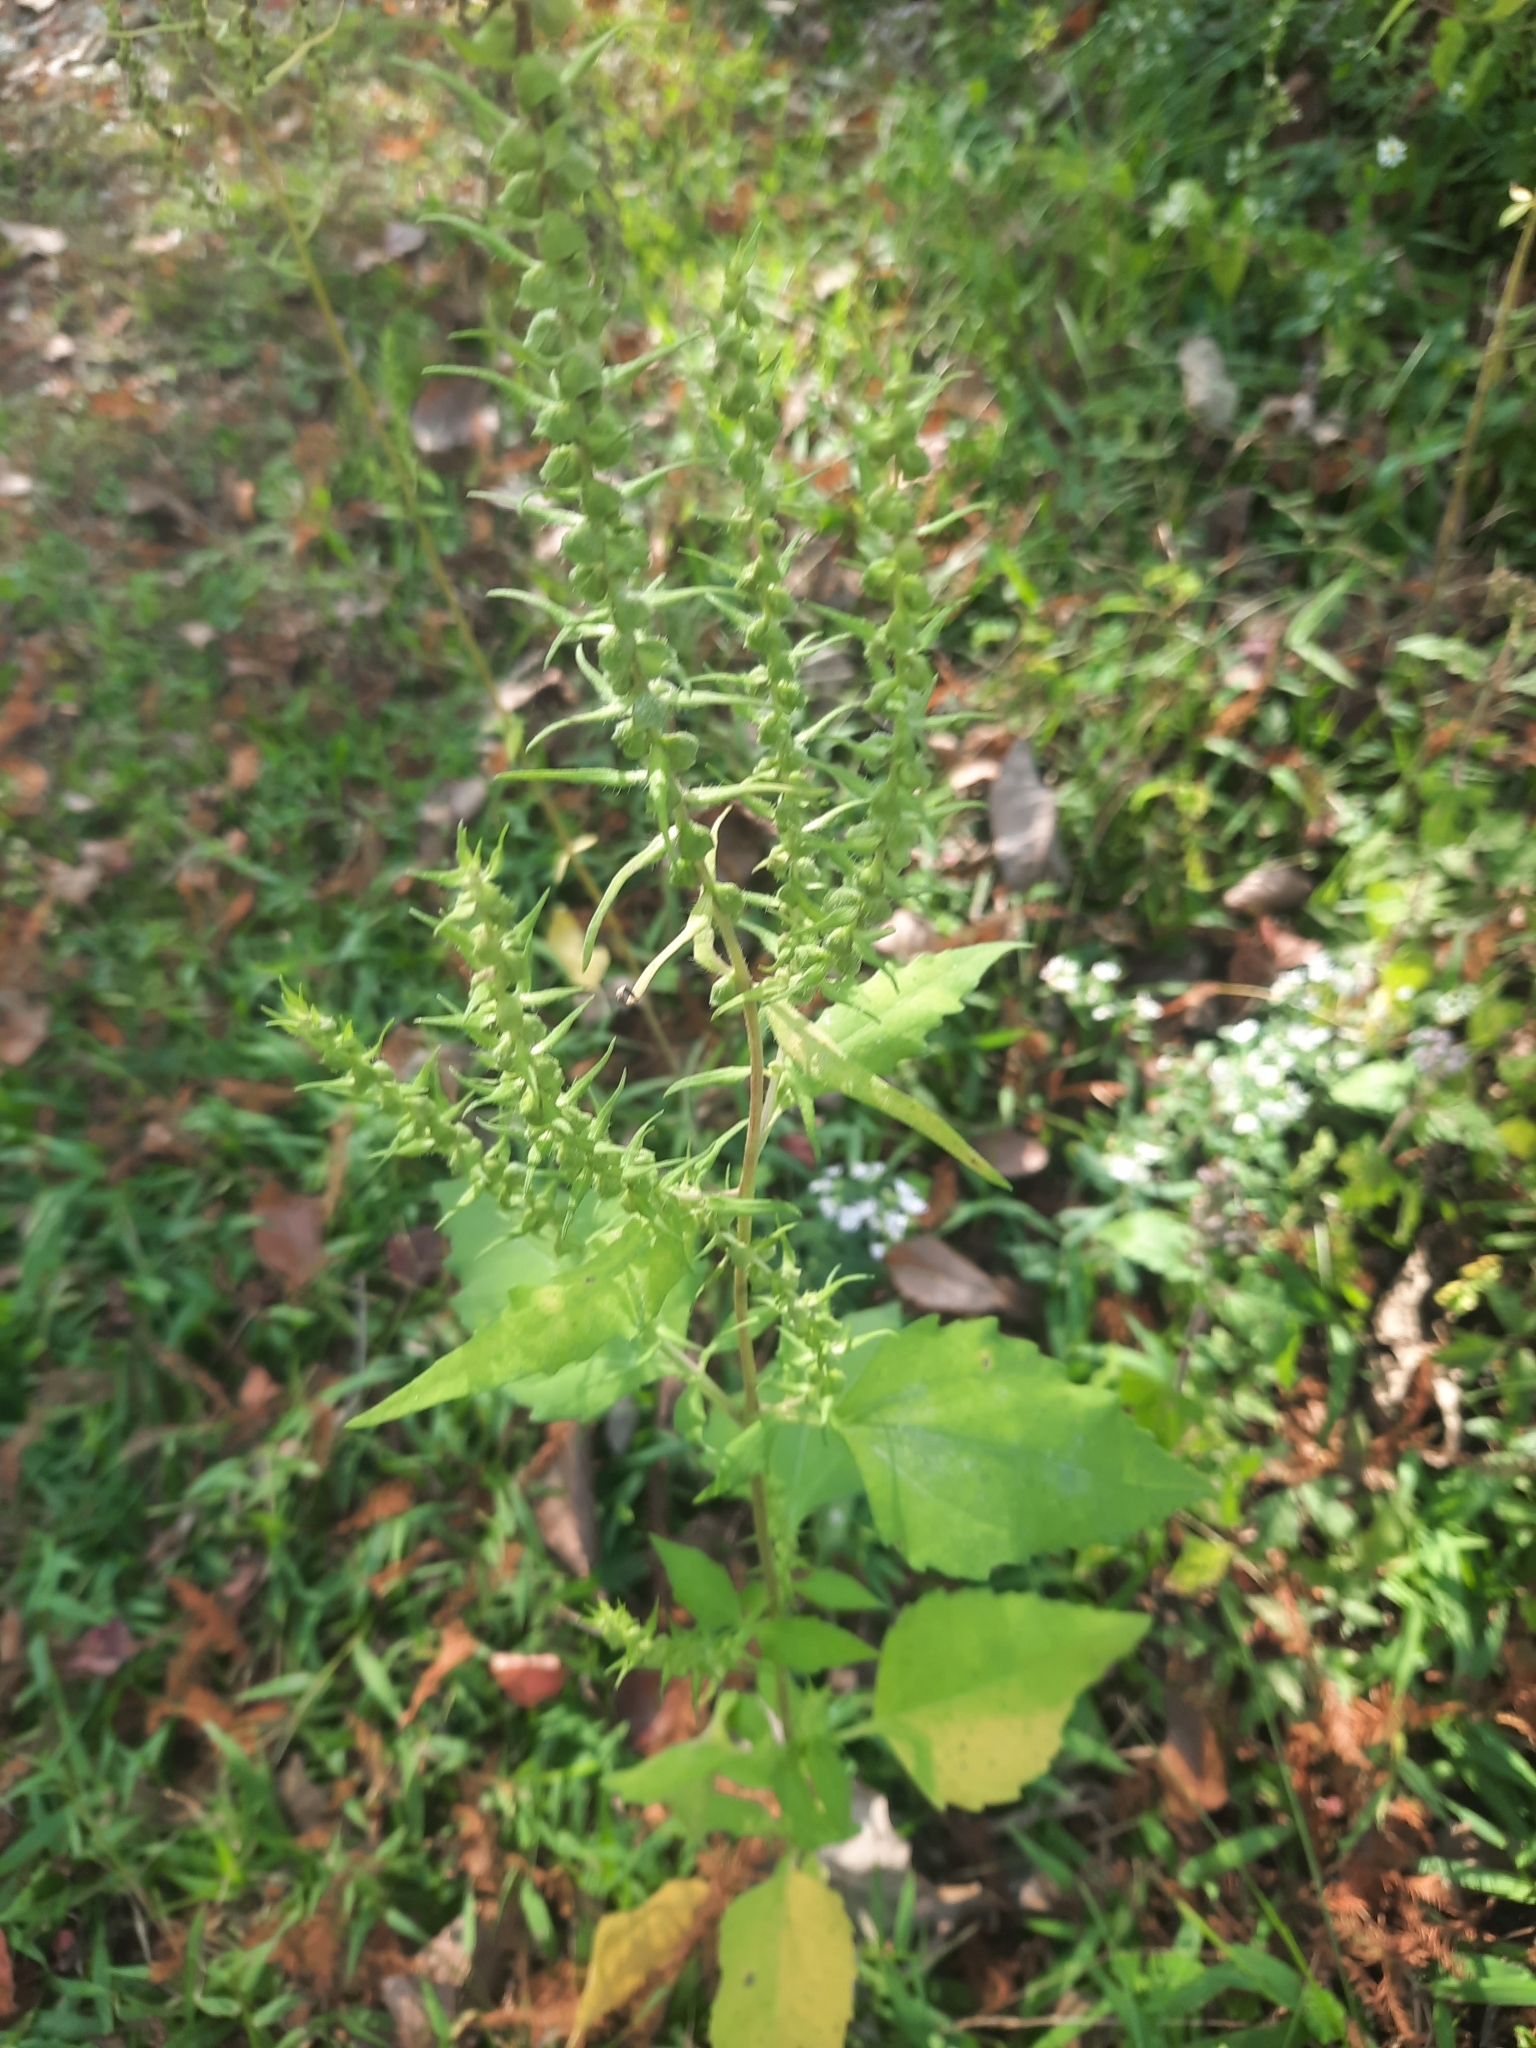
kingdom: Plantae
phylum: Tracheophyta
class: Magnoliopsida
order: Asterales
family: Asteraceae
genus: Iva
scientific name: Iva annua
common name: Marsh-elder
